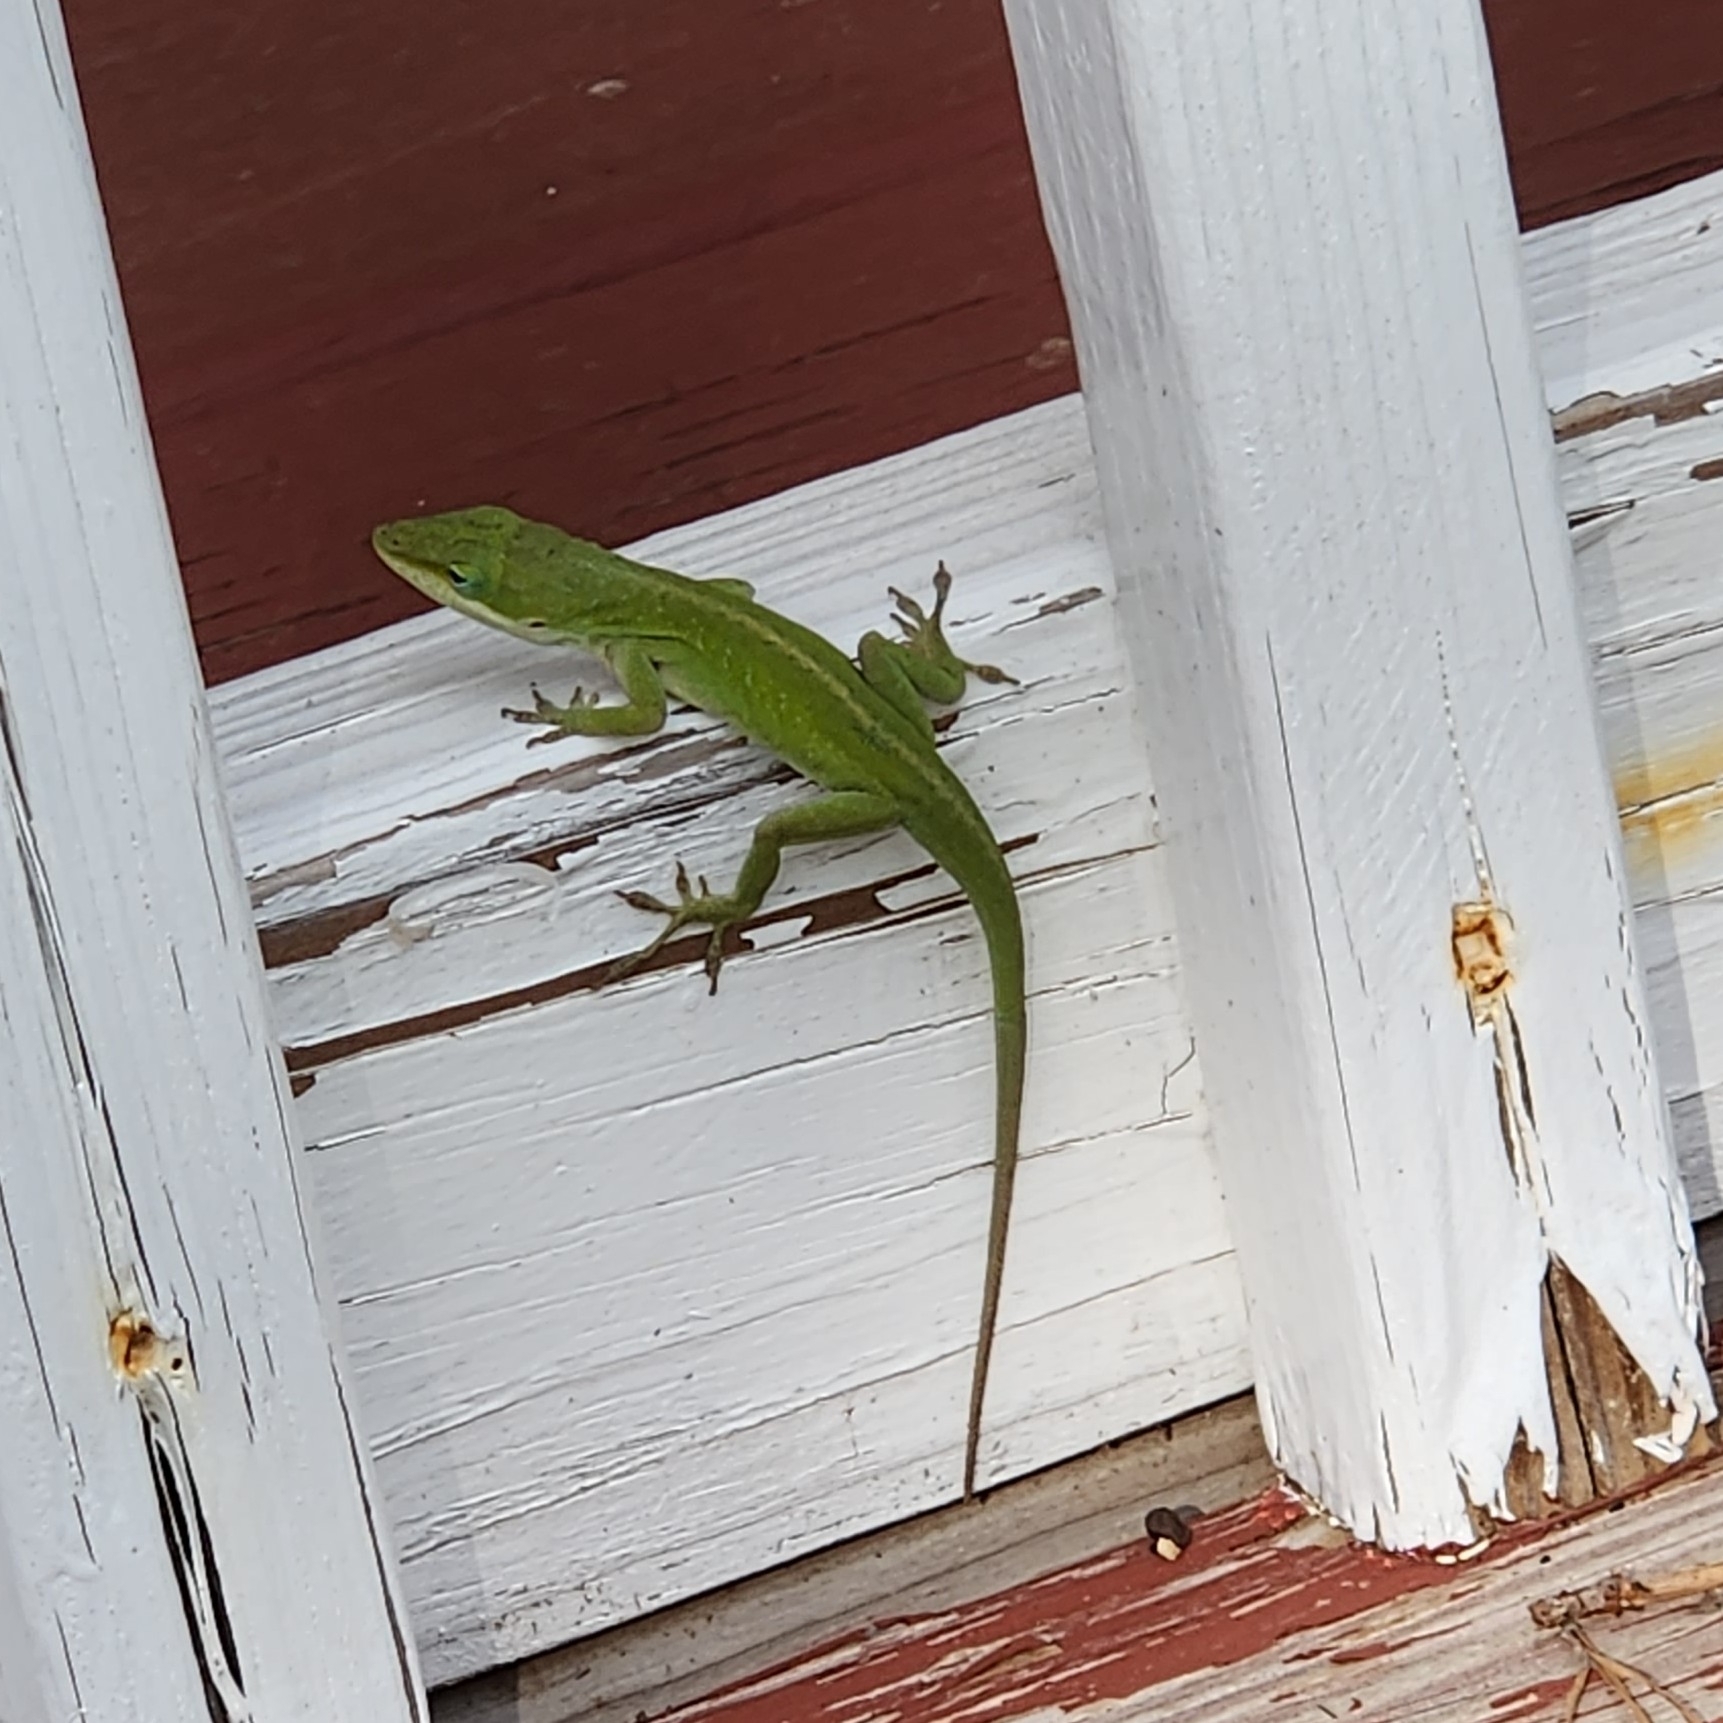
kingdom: Animalia
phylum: Chordata
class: Squamata
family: Dactyloidae
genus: Anolis
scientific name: Anolis carolinensis
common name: Green anole
